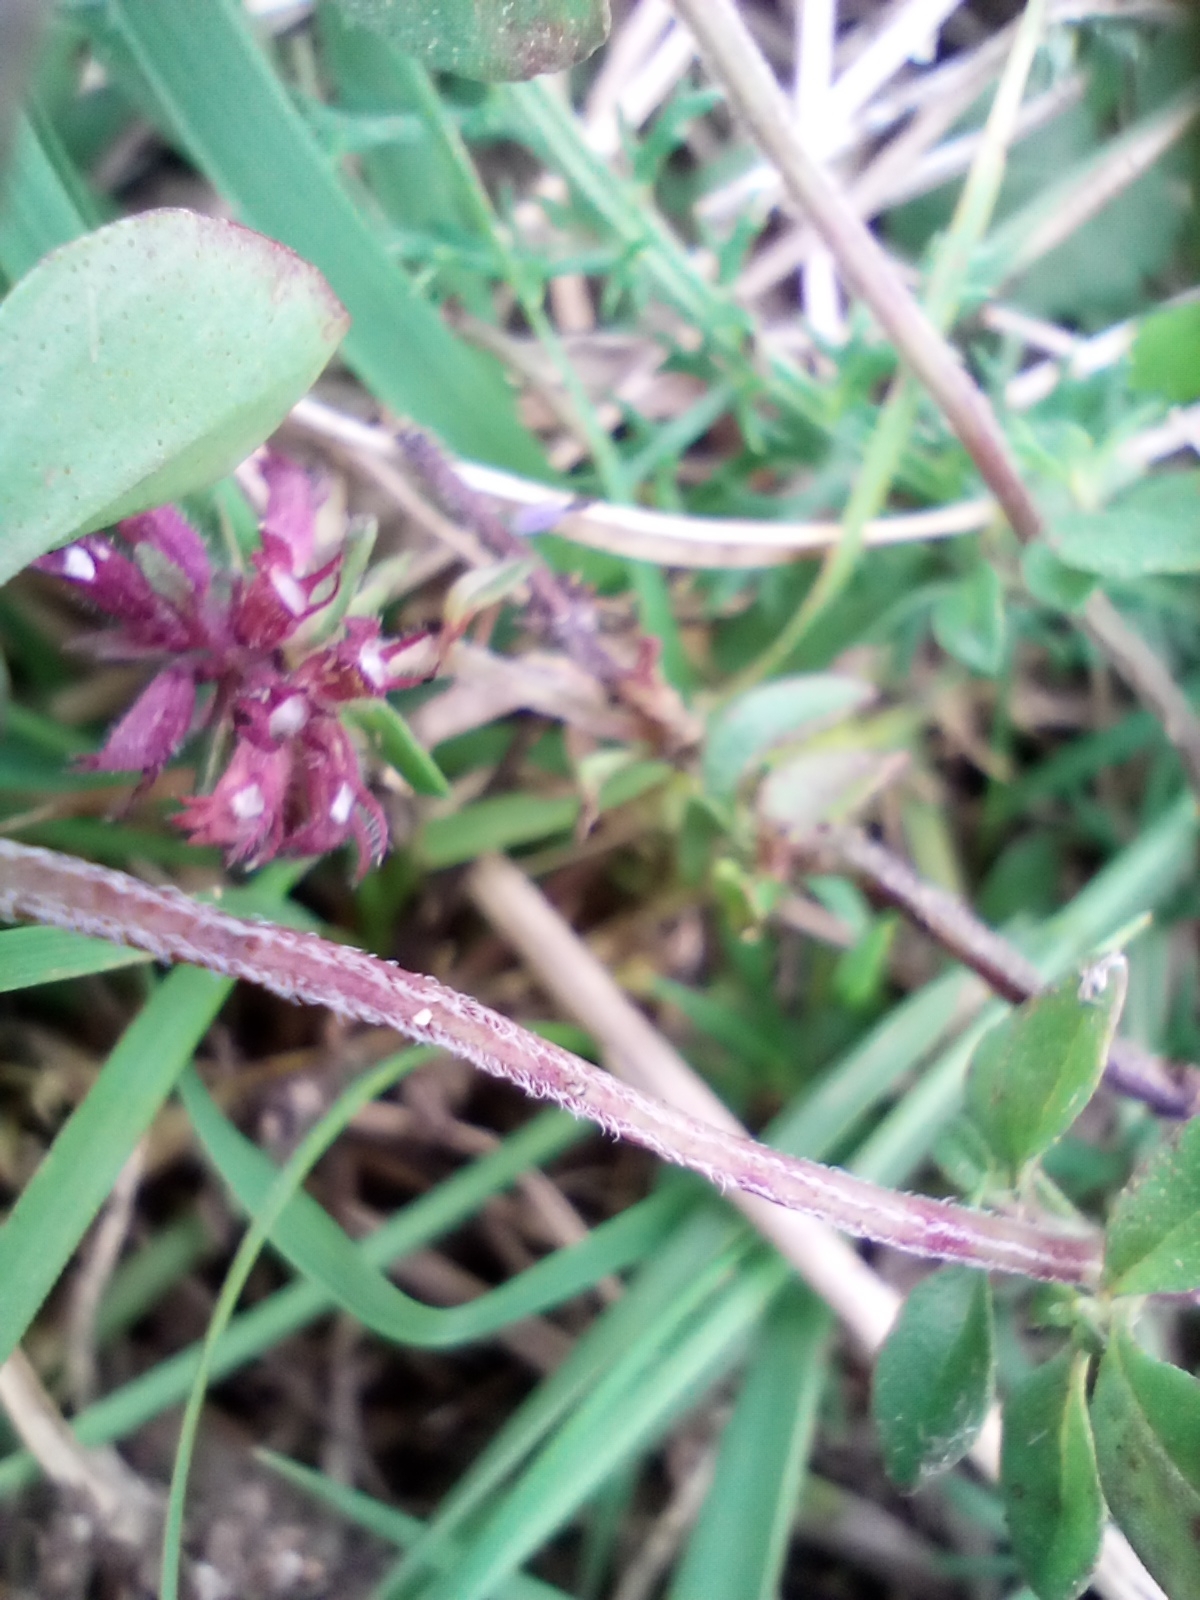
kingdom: Plantae
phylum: Tracheophyta
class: Magnoliopsida
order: Lamiales
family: Lamiaceae
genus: Thymus
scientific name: Thymus pulegioides
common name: Large thyme
